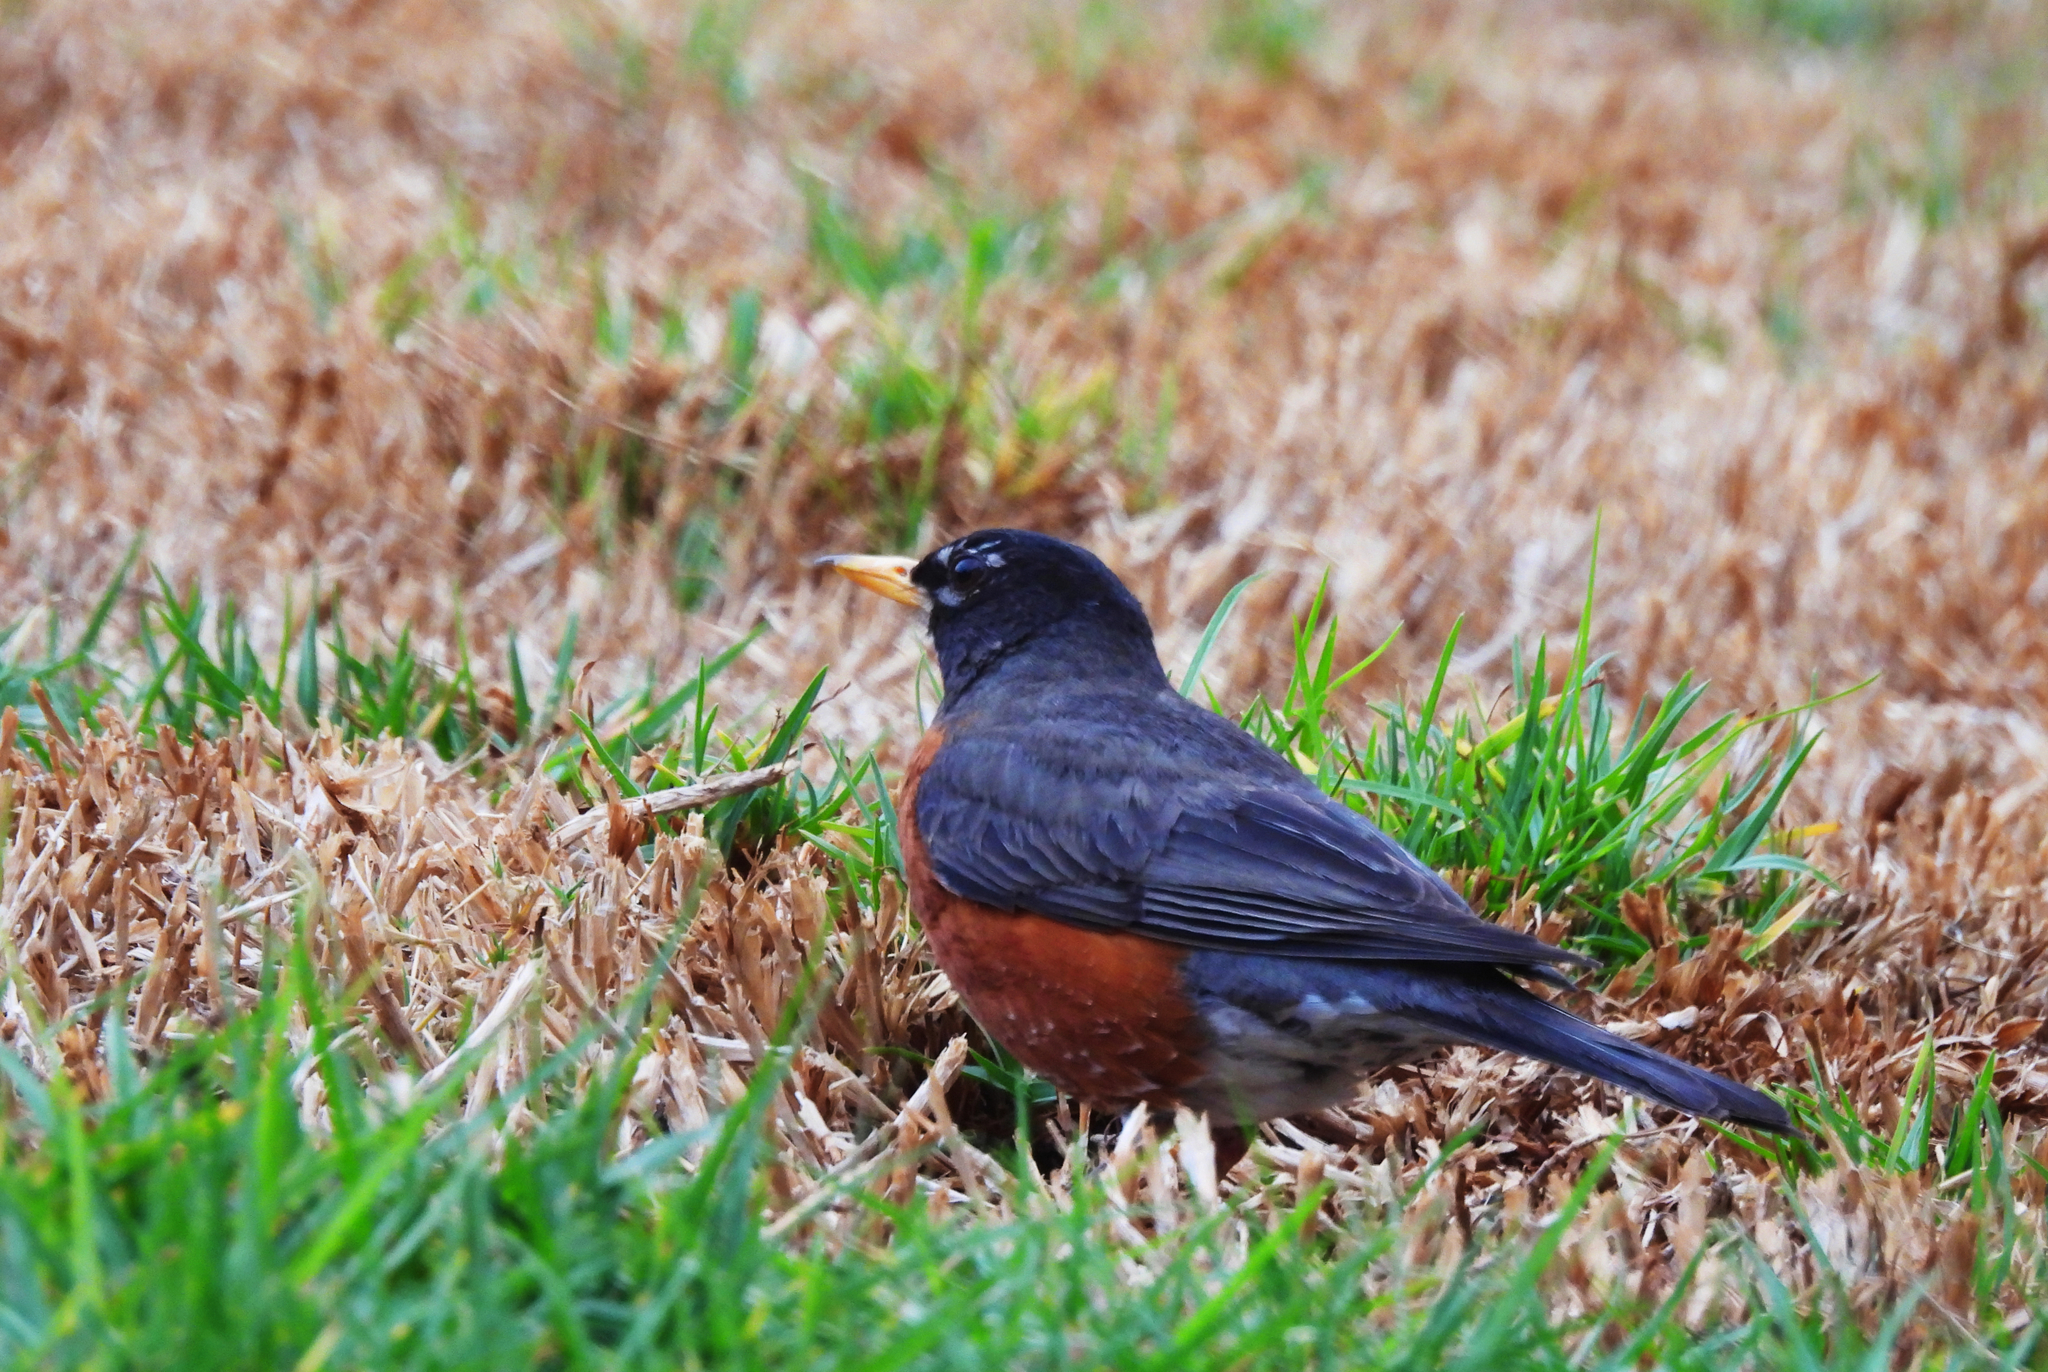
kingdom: Animalia
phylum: Chordata
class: Aves
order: Passeriformes
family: Turdidae
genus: Turdus
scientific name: Turdus migratorius
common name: American robin
